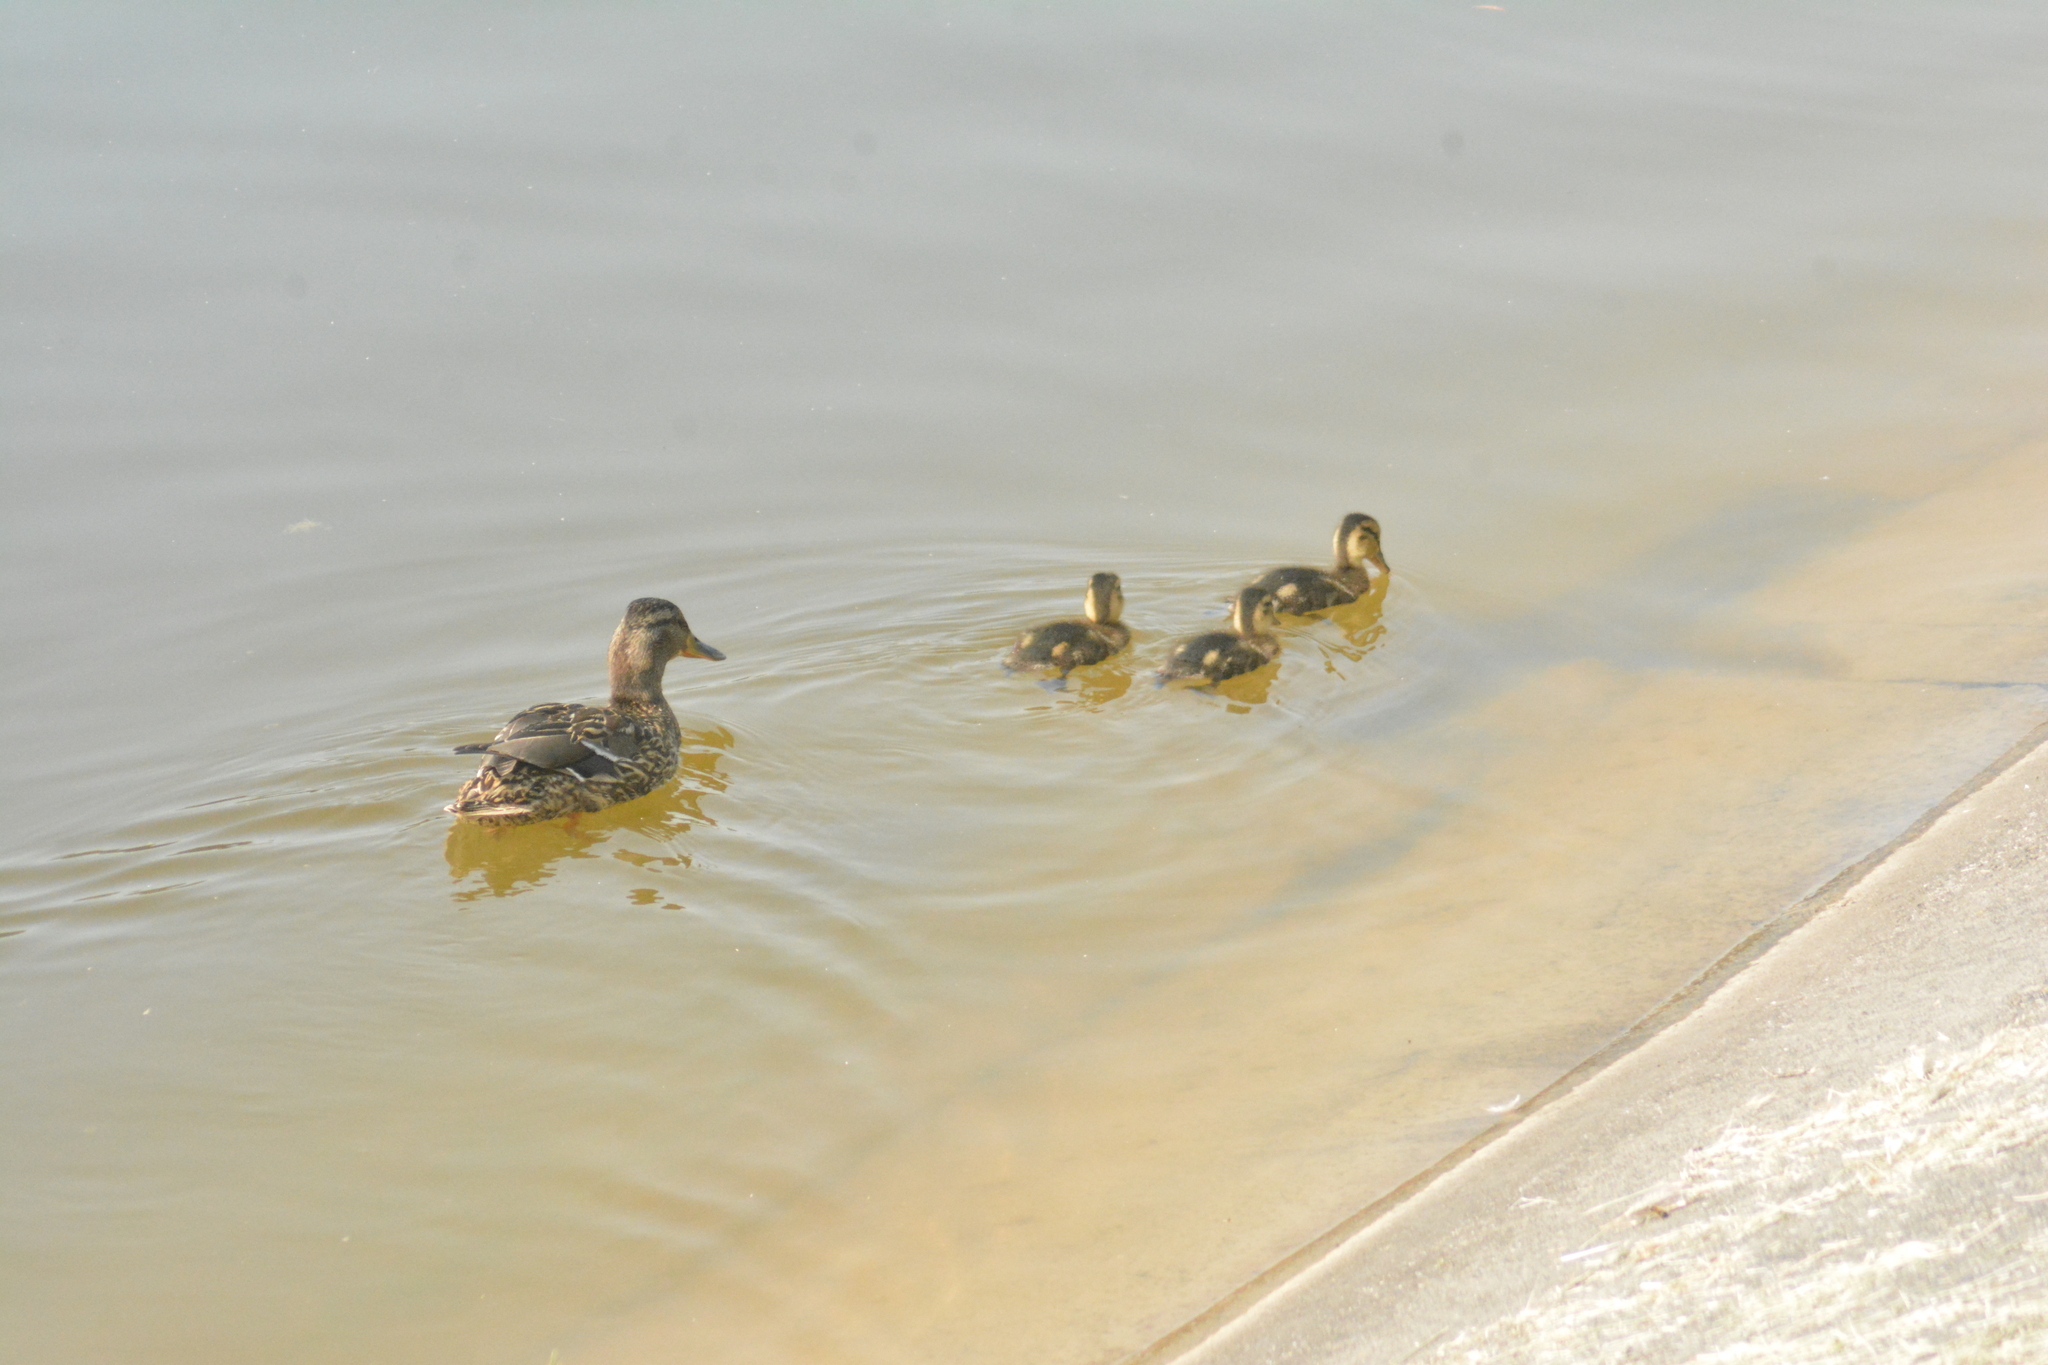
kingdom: Animalia
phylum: Chordata
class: Aves
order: Anseriformes
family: Anatidae
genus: Anas
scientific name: Anas platyrhynchos
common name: Mallard
